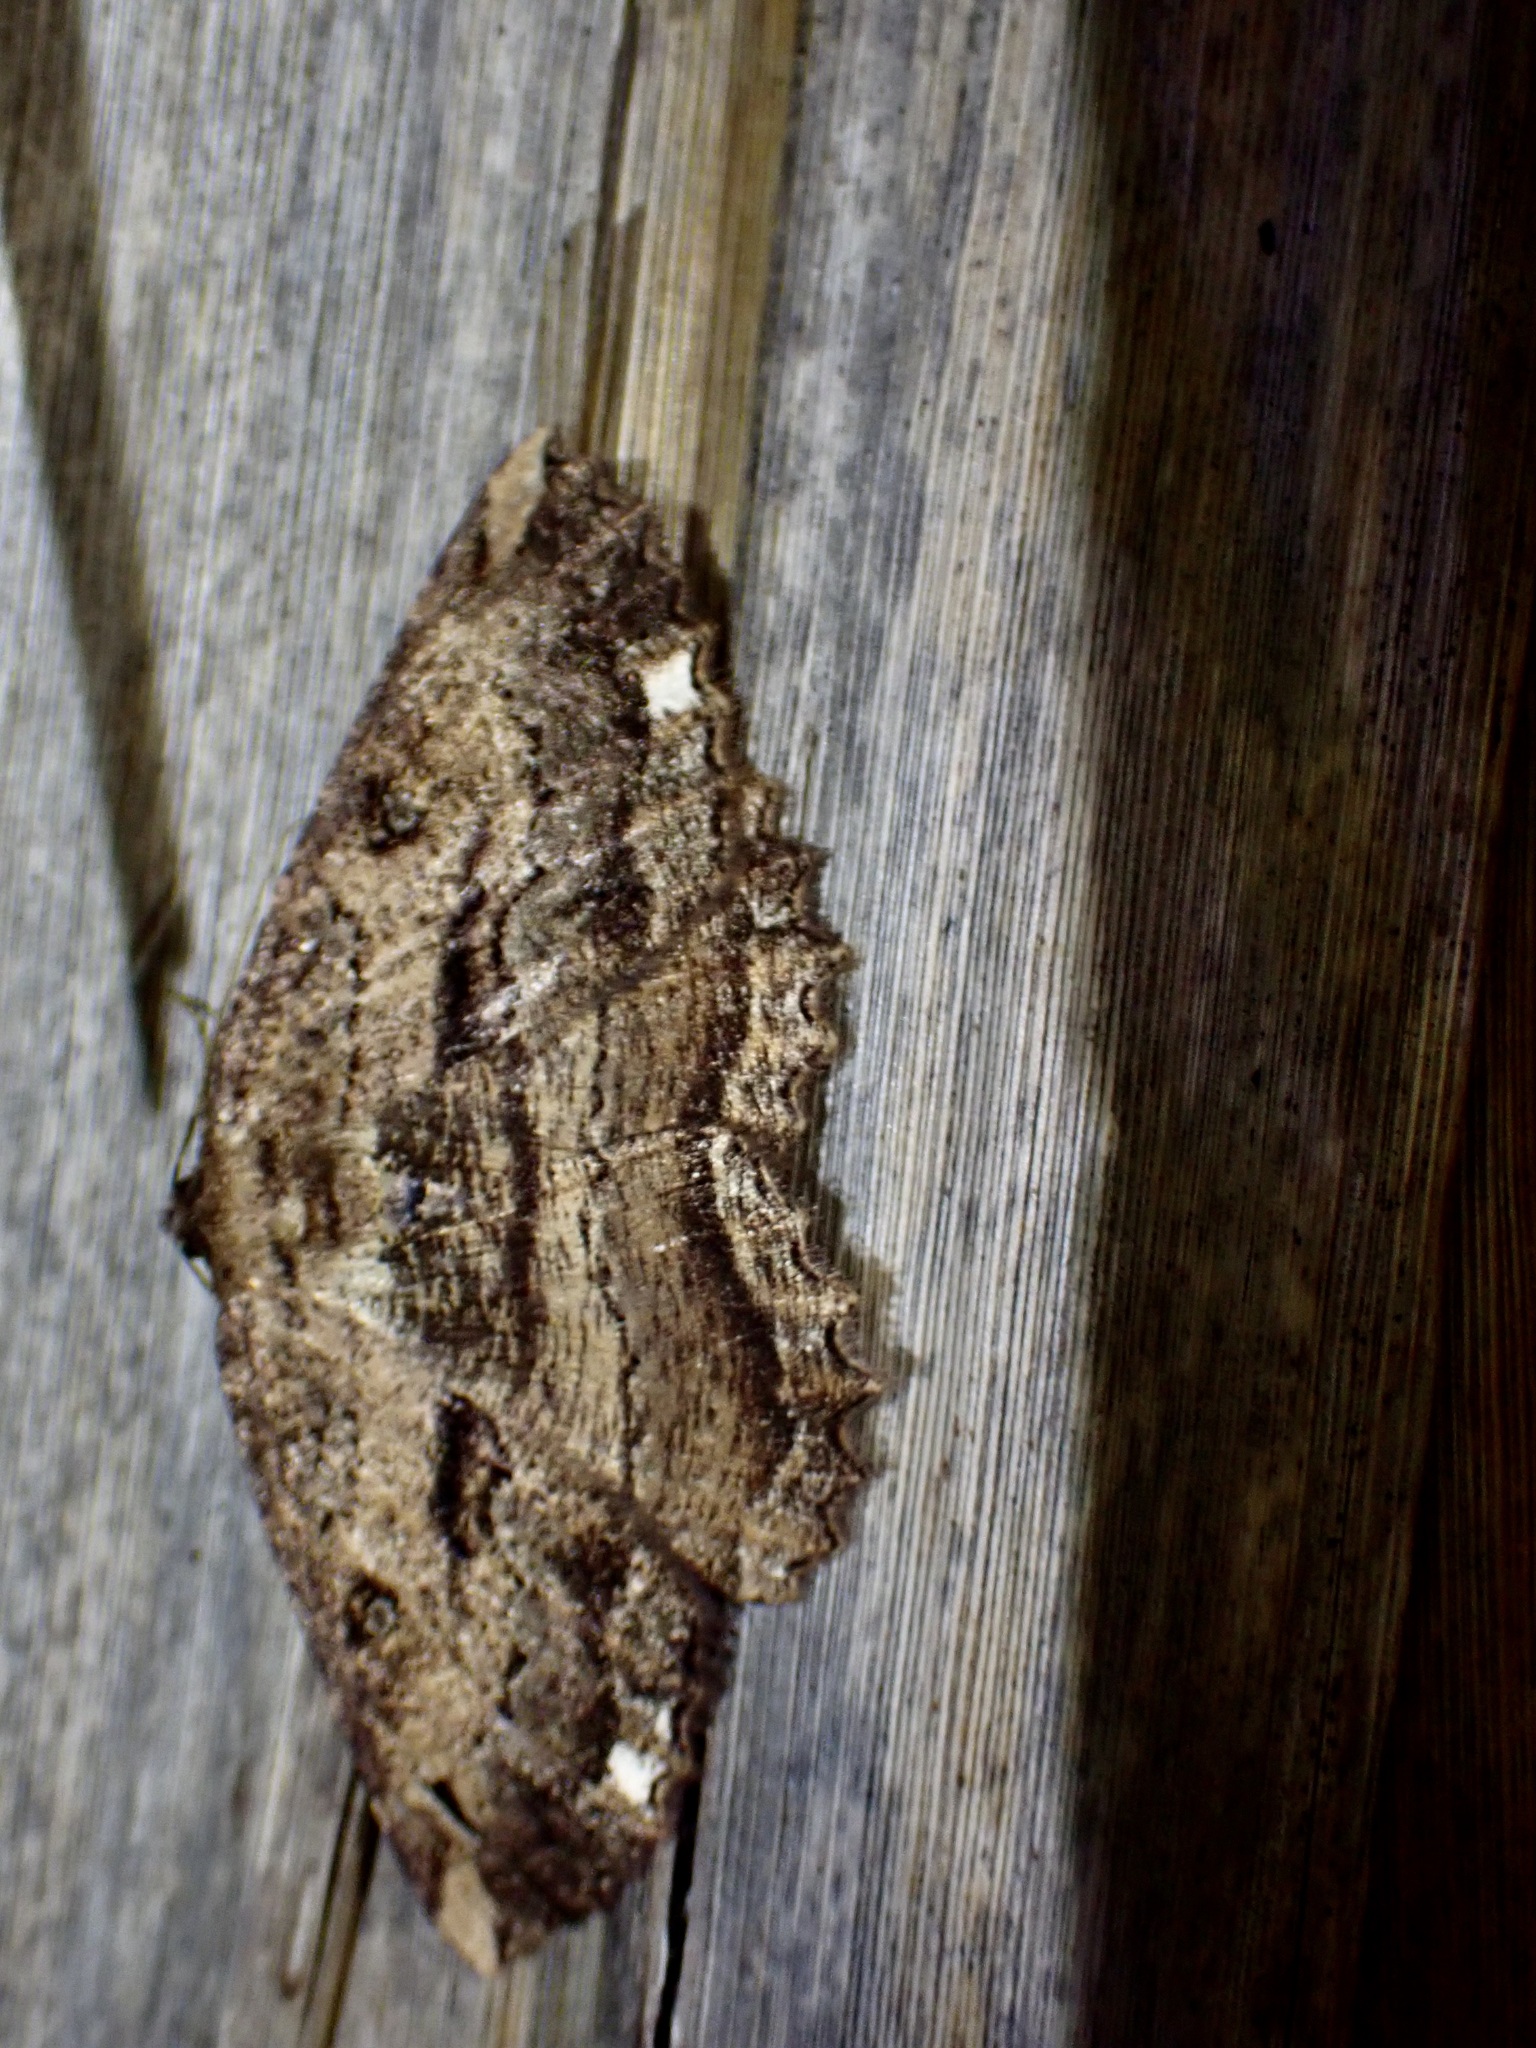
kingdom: Animalia
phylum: Arthropoda
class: Insecta
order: Lepidoptera
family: Geometridae
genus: Gellonia
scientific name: Gellonia dejectaria
